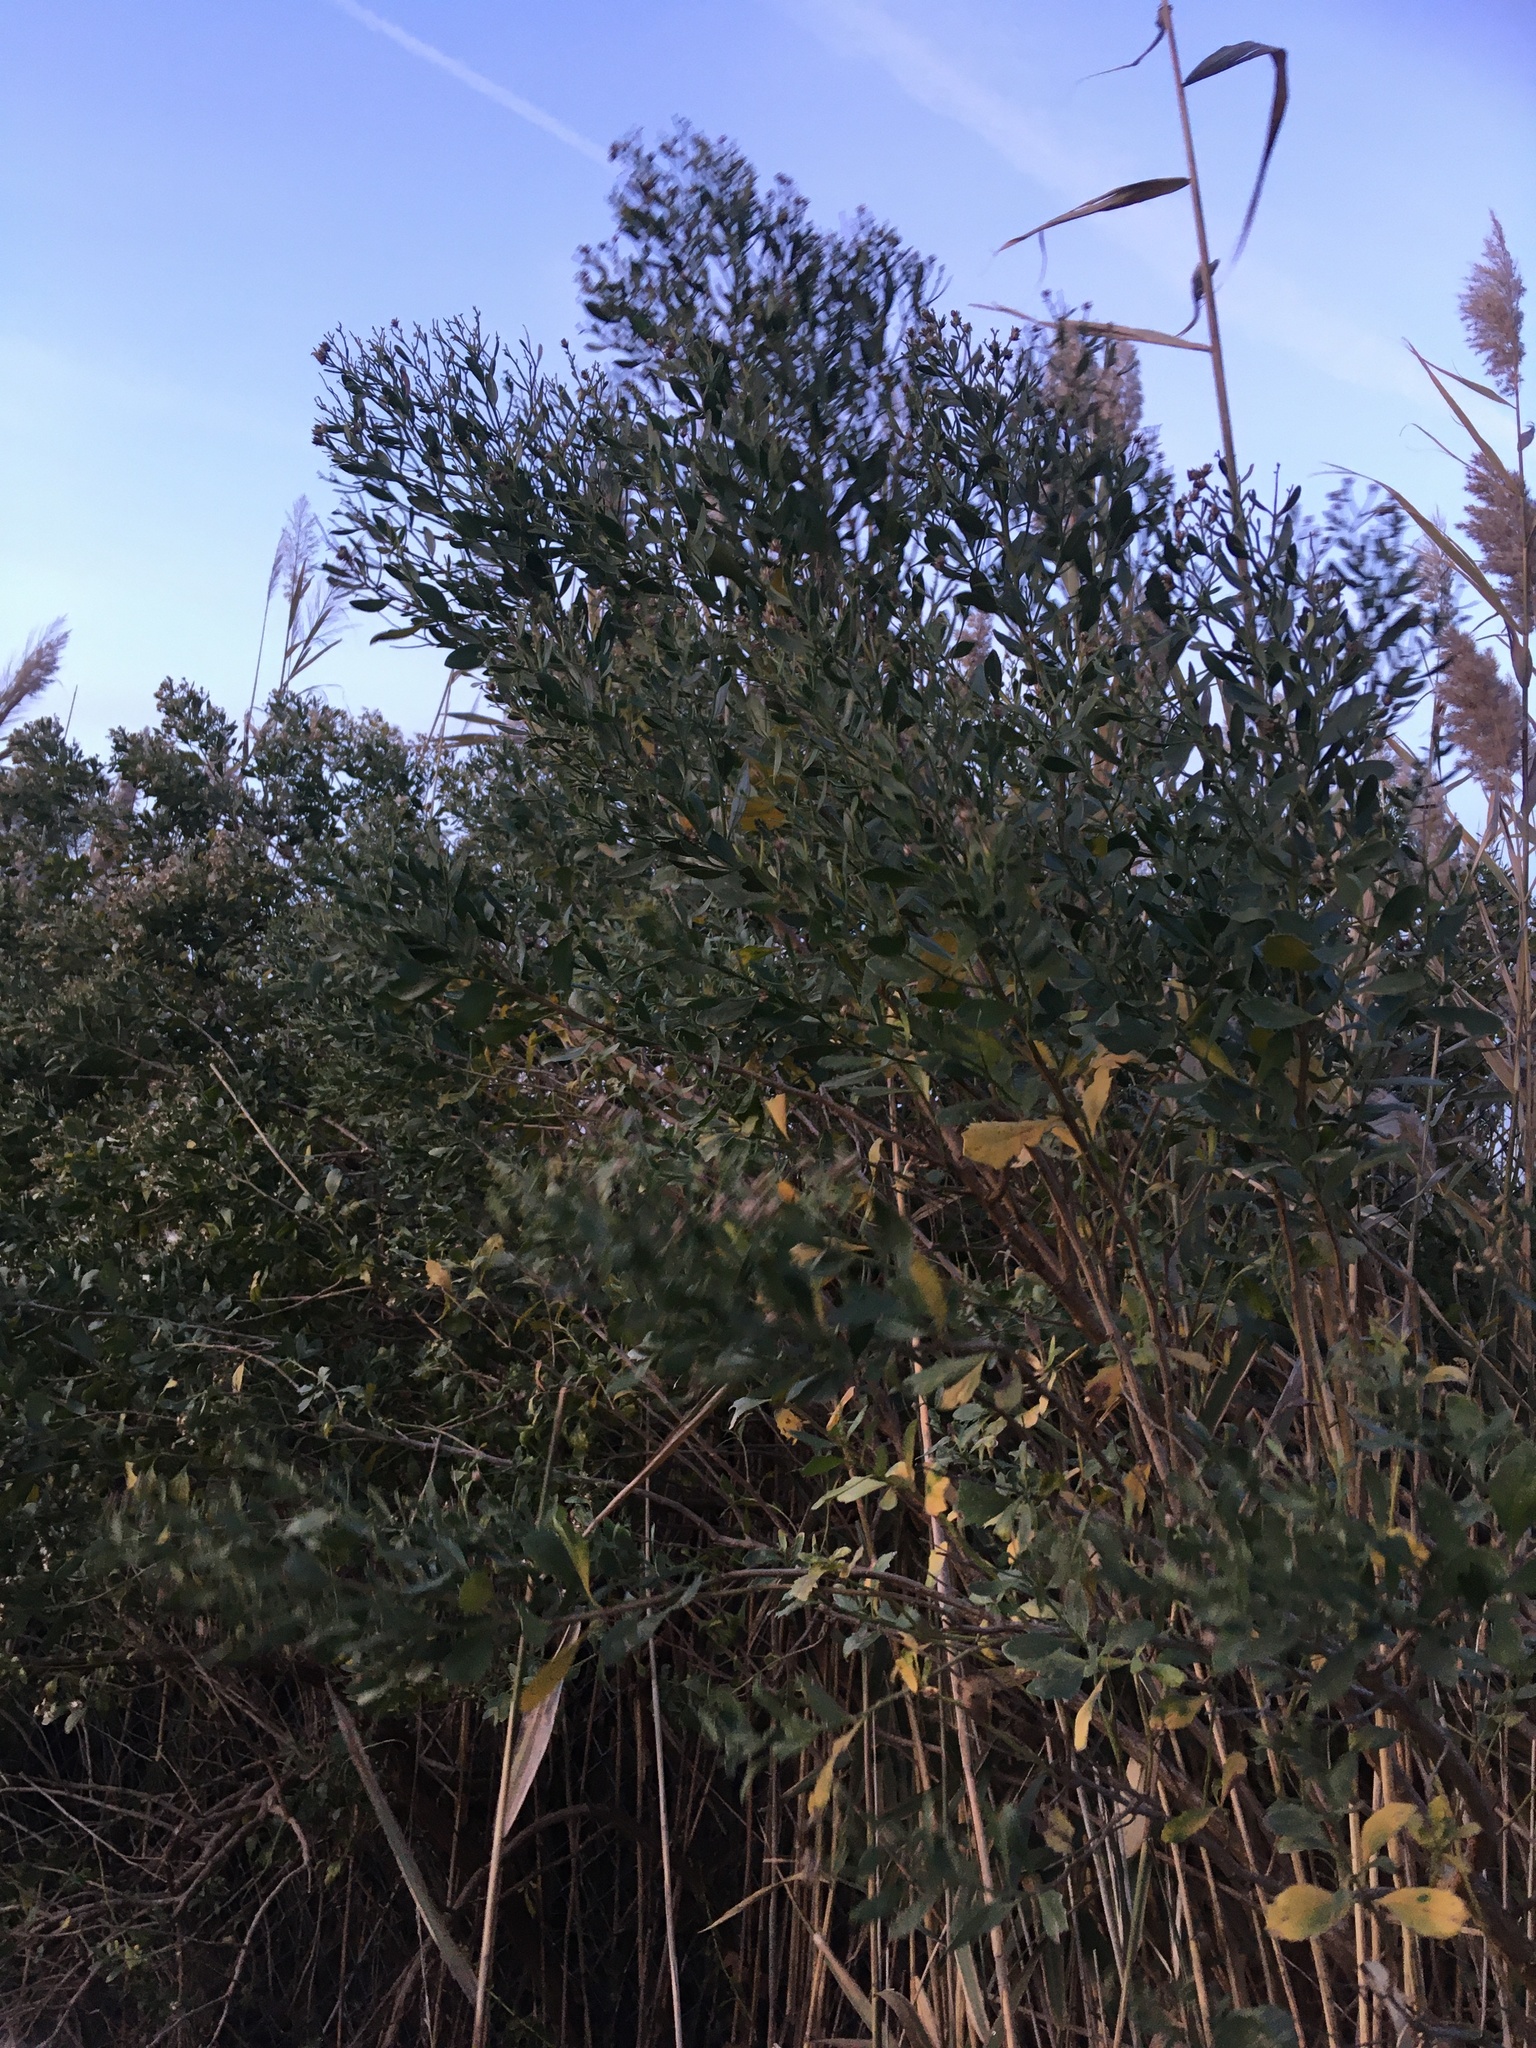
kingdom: Plantae
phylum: Tracheophyta
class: Magnoliopsida
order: Asterales
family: Asteraceae
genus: Baccharis
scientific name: Baccharis halimifolia
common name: Eastern baccharis
